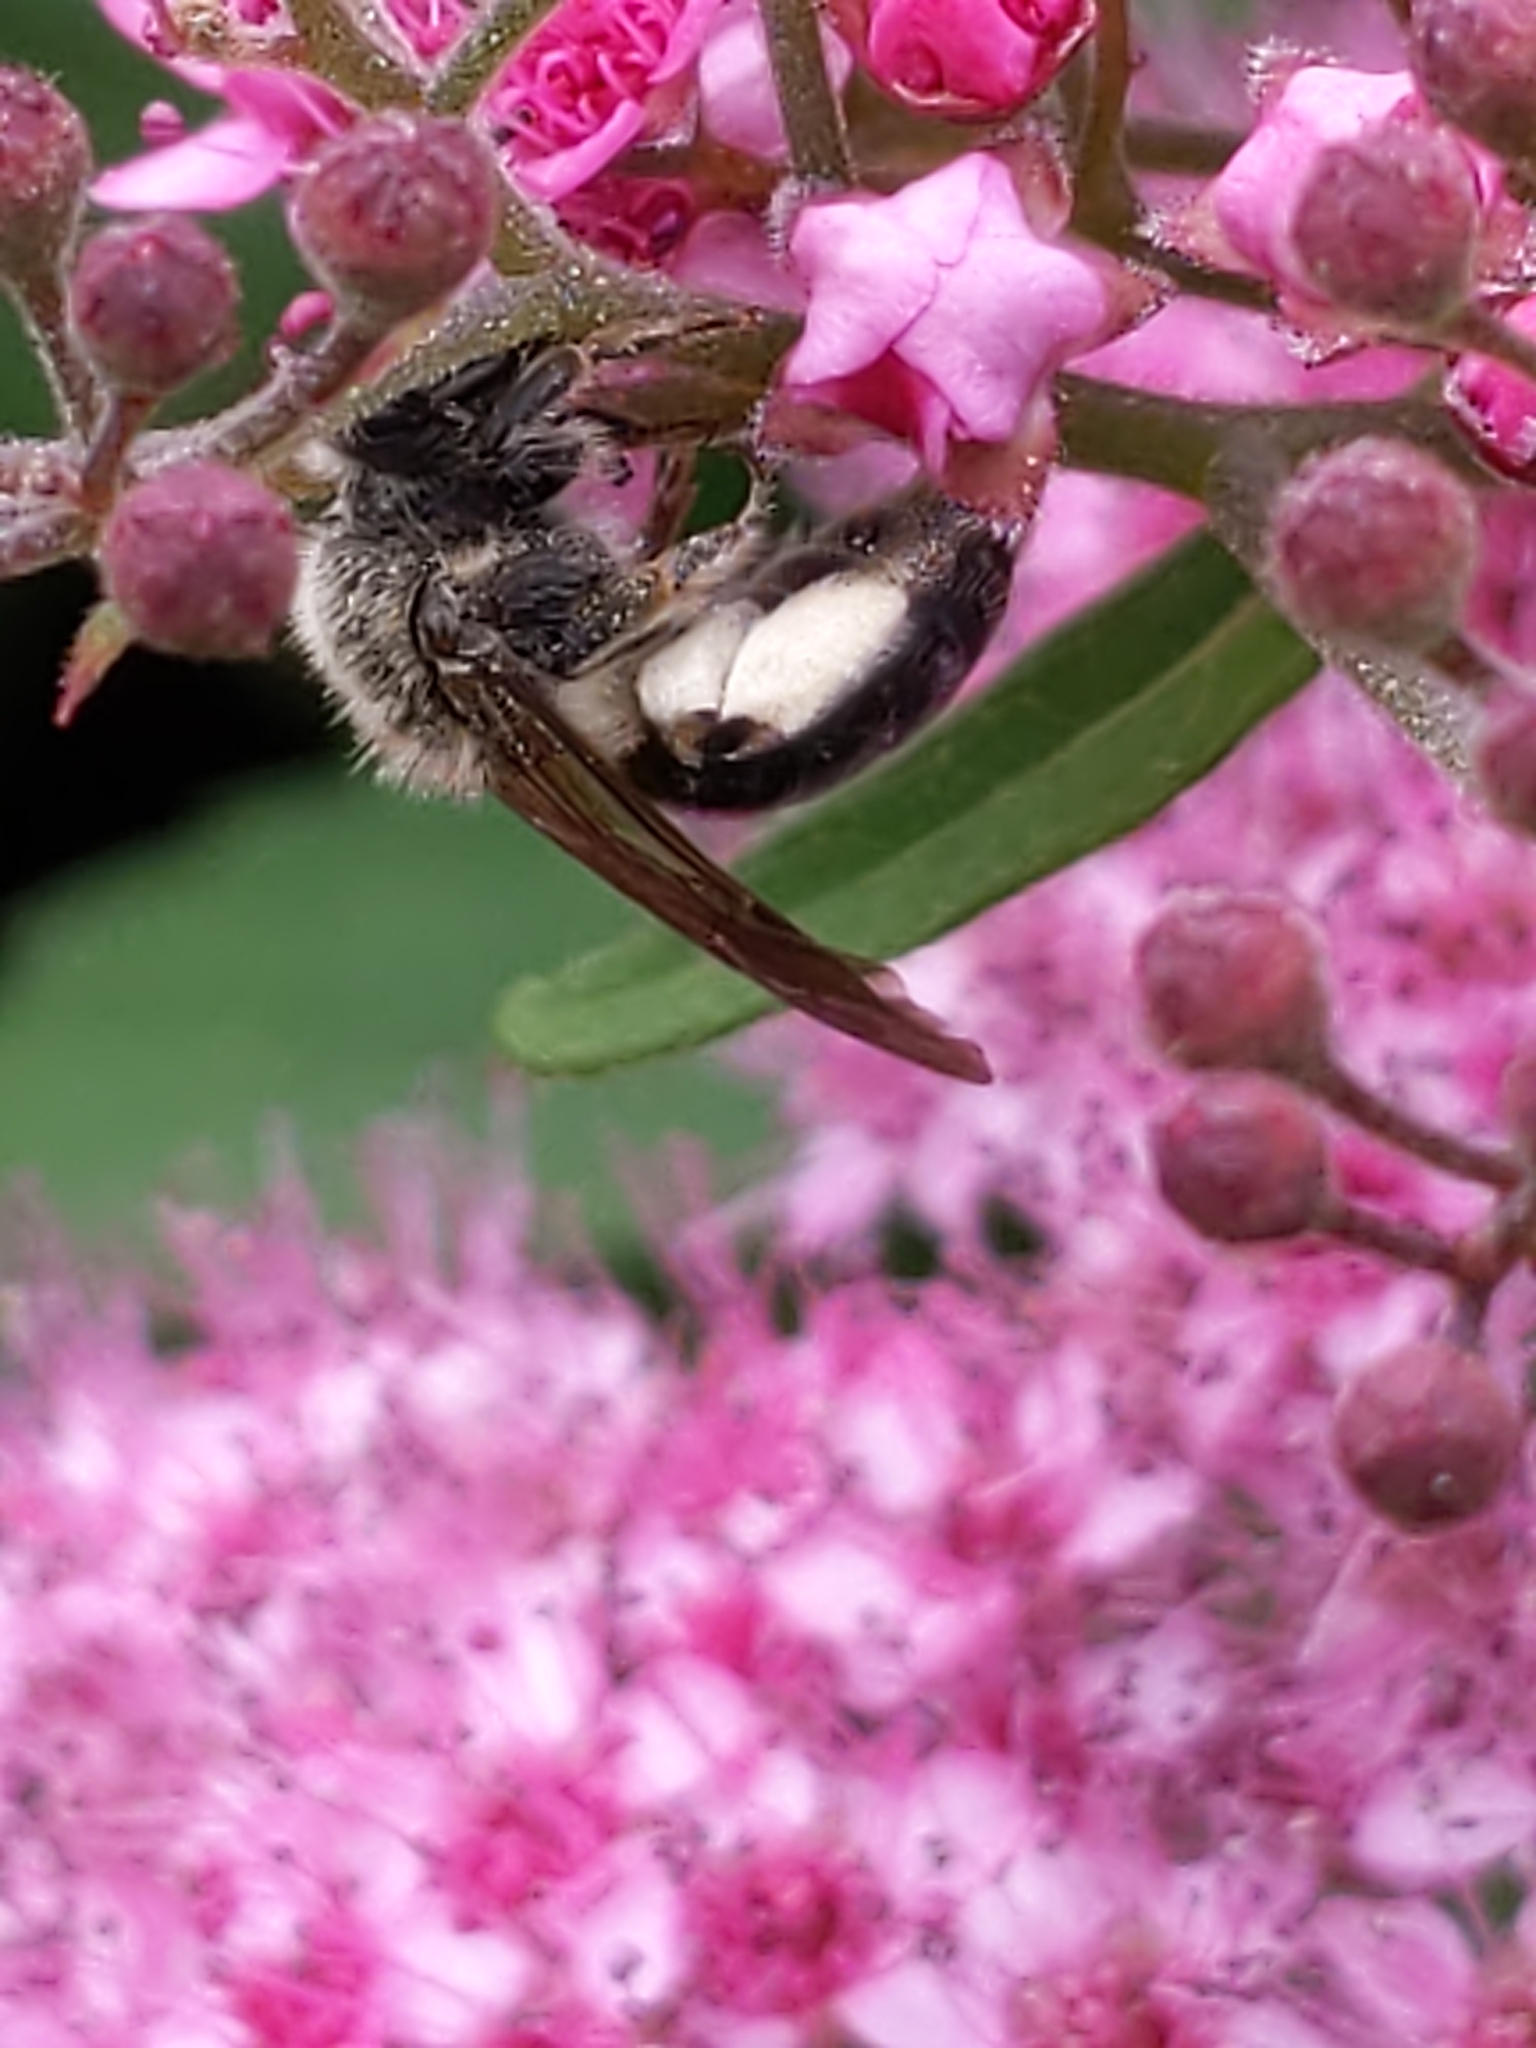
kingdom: Animalia
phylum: Arthropoda
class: Insecta
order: Hymenoptera
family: Andrenidae
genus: Andrena
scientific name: Andrena
